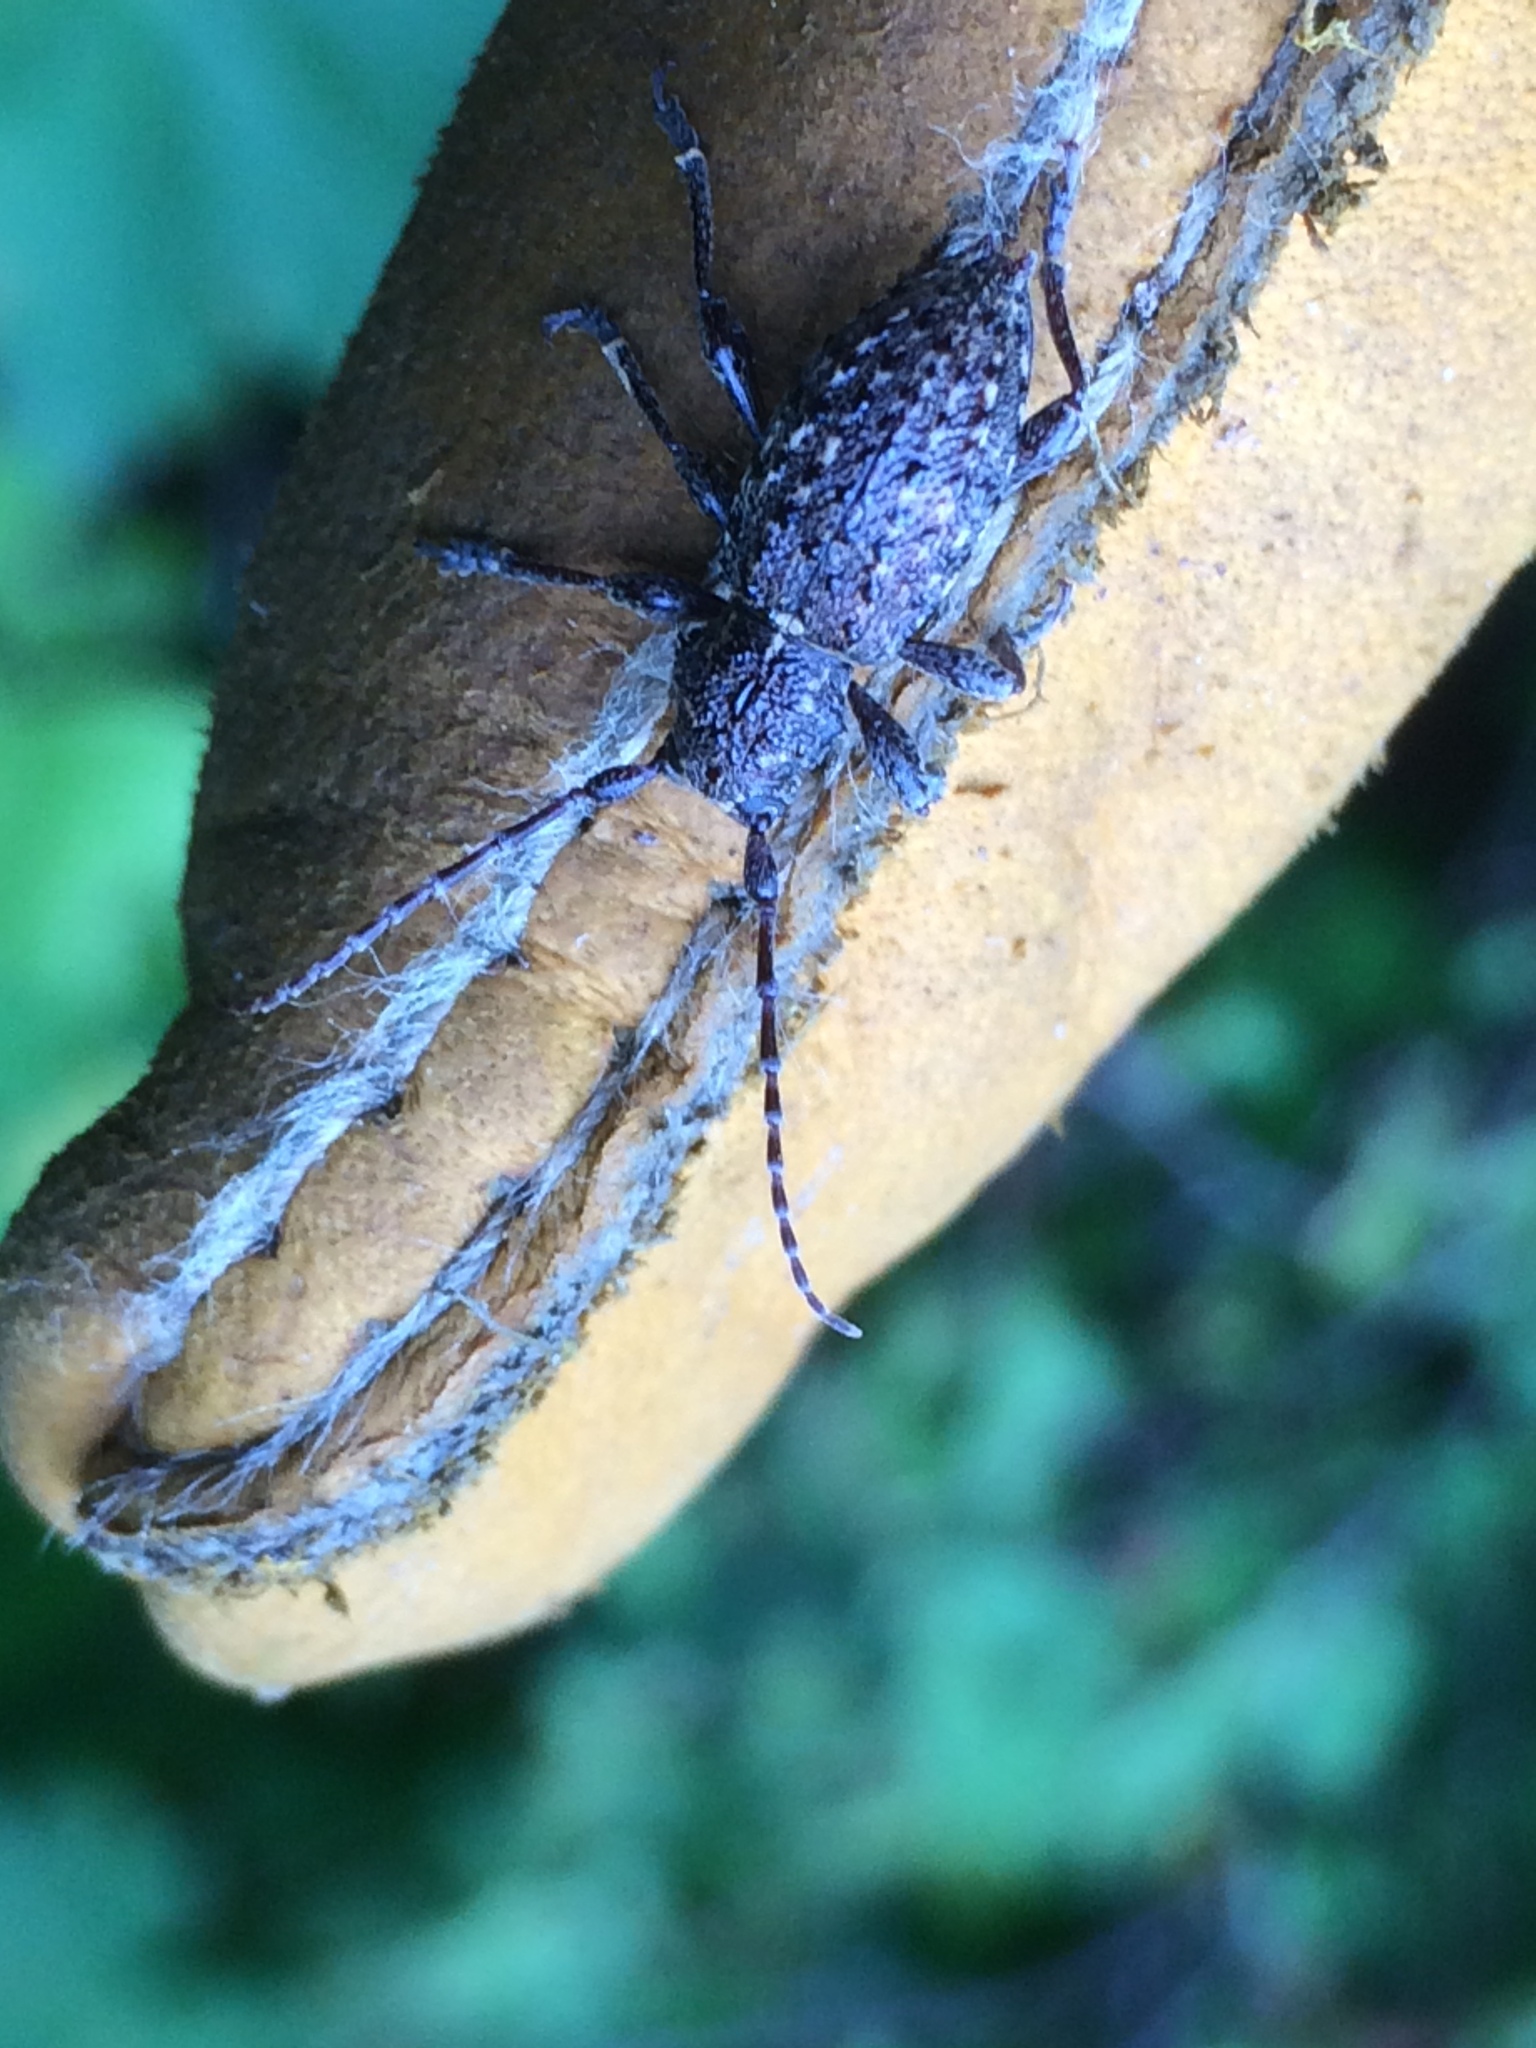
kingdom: Animalia
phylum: Arthropoda
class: Insecta
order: Coleoptera
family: Cerambycidae
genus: Plectrura
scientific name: Plectrura spinicauda
